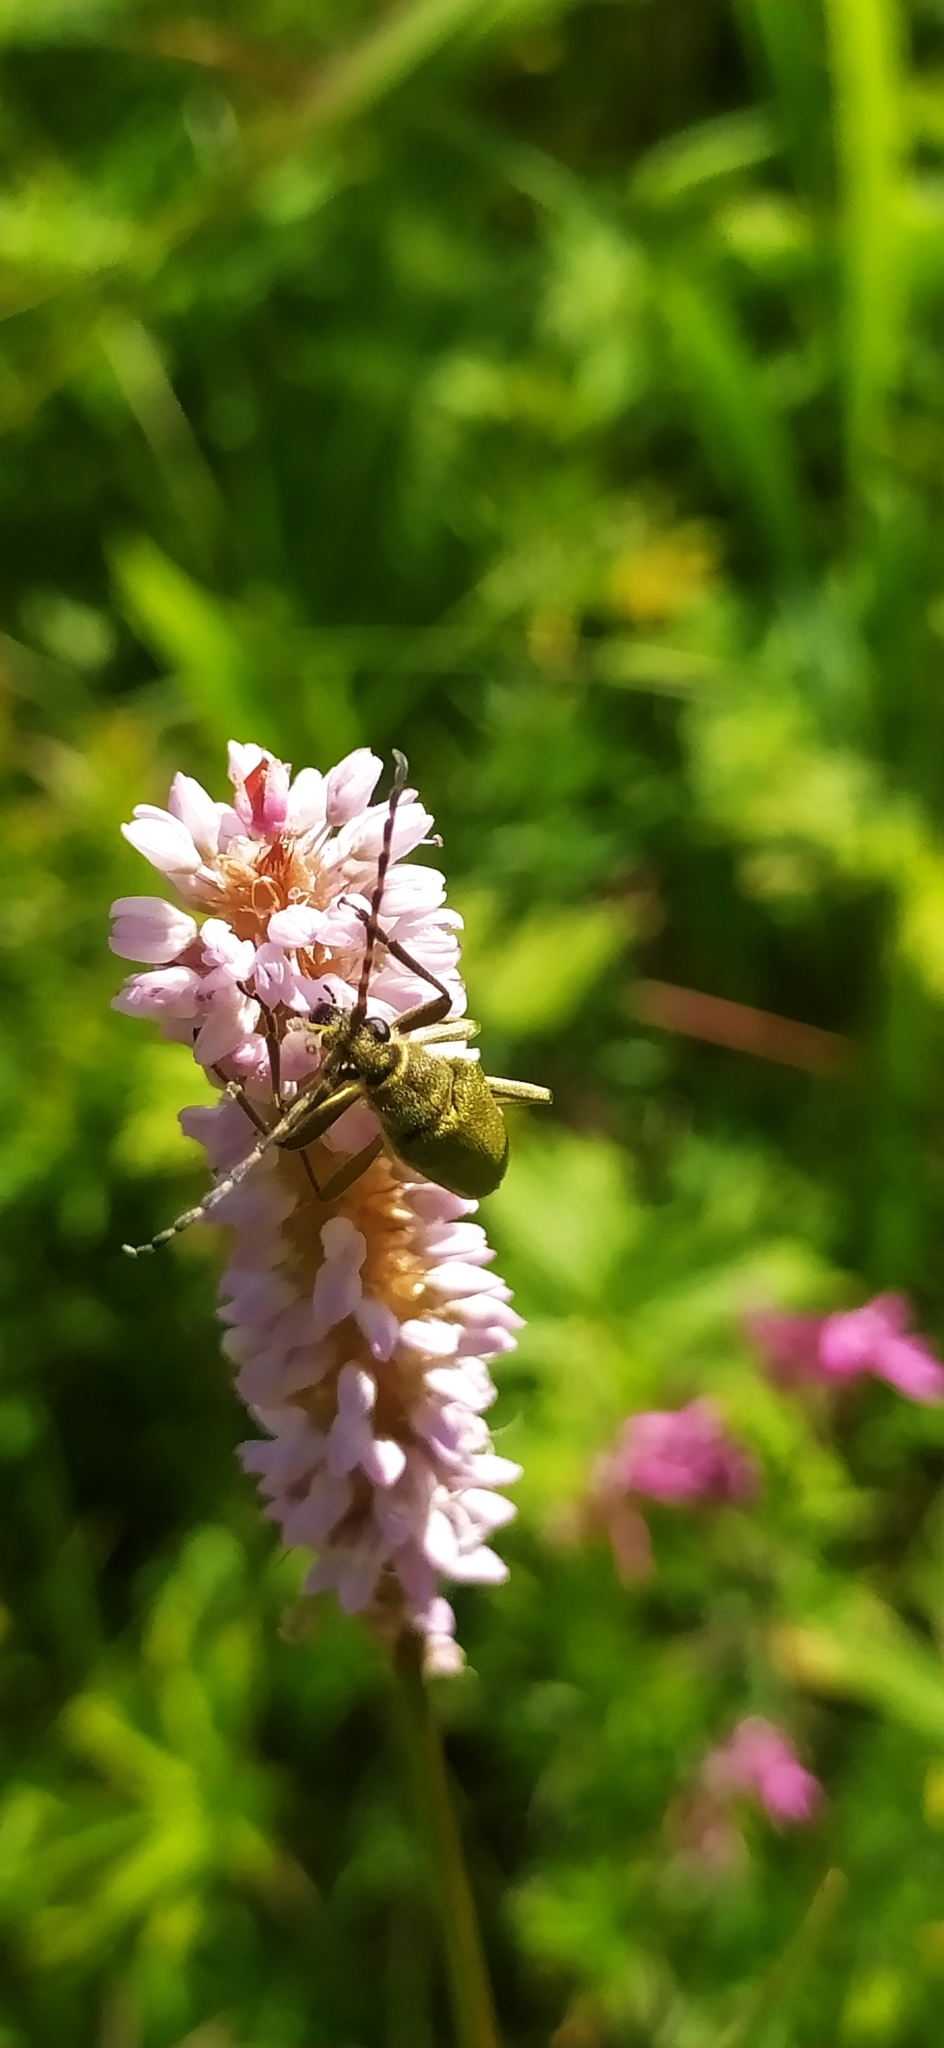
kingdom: Animalia
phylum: Arthropoda
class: Insecta
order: Coleoptera
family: Cerambycidae
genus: Lepturobosca
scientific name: Lepturobosca virens
